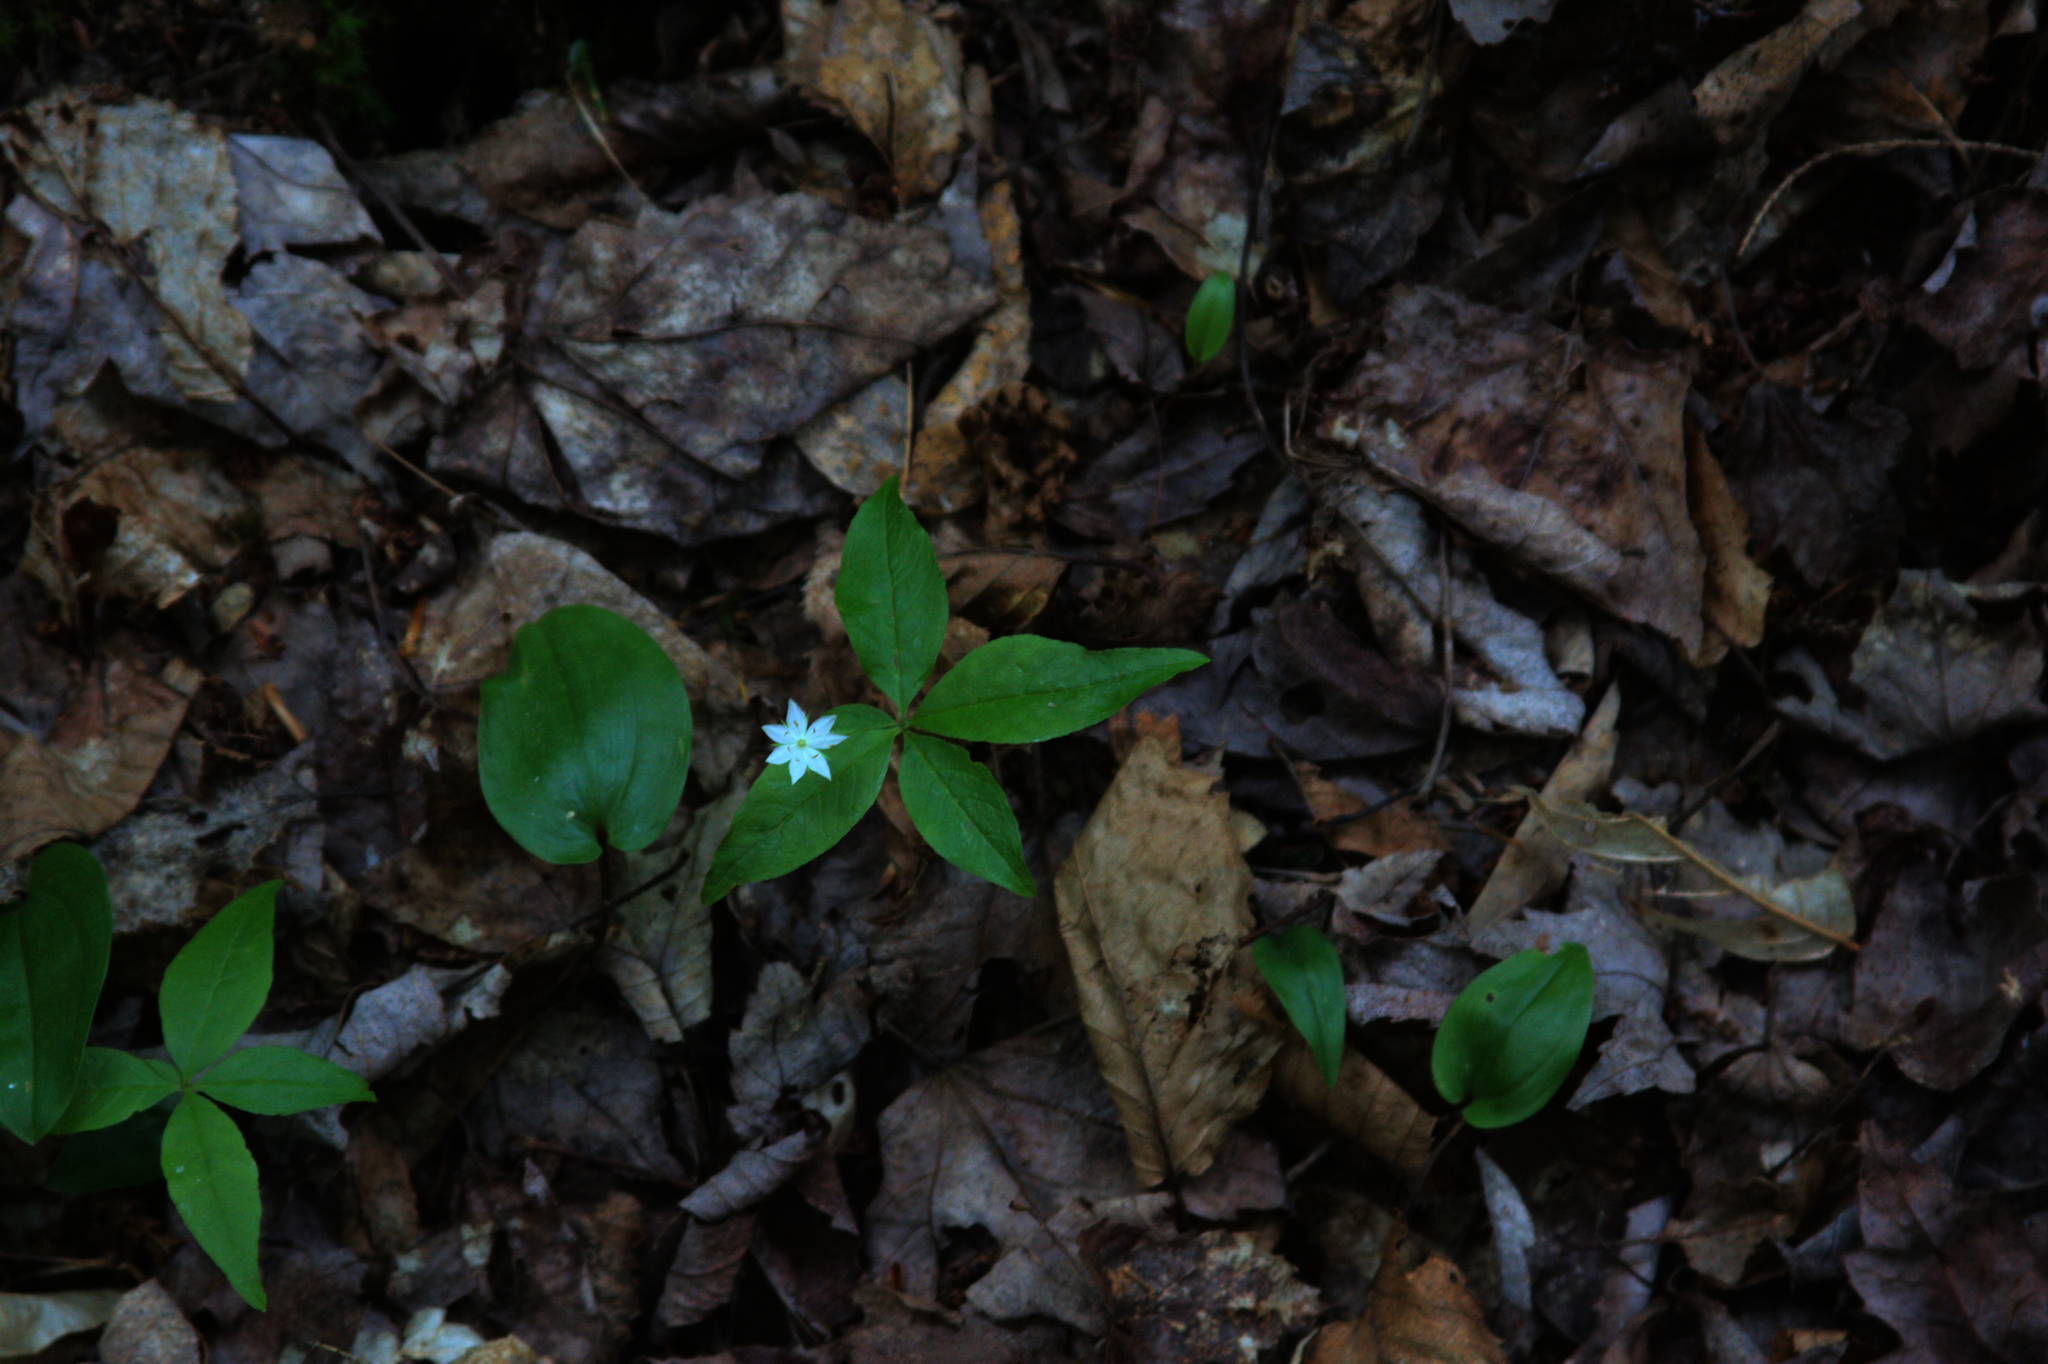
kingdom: Plantae
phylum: Tracheophyta
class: Liliopsida
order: Asparagales
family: Asparagaceae
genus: Maianthemum
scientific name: Maianthemum canadense
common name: False lily-of-the-valley
